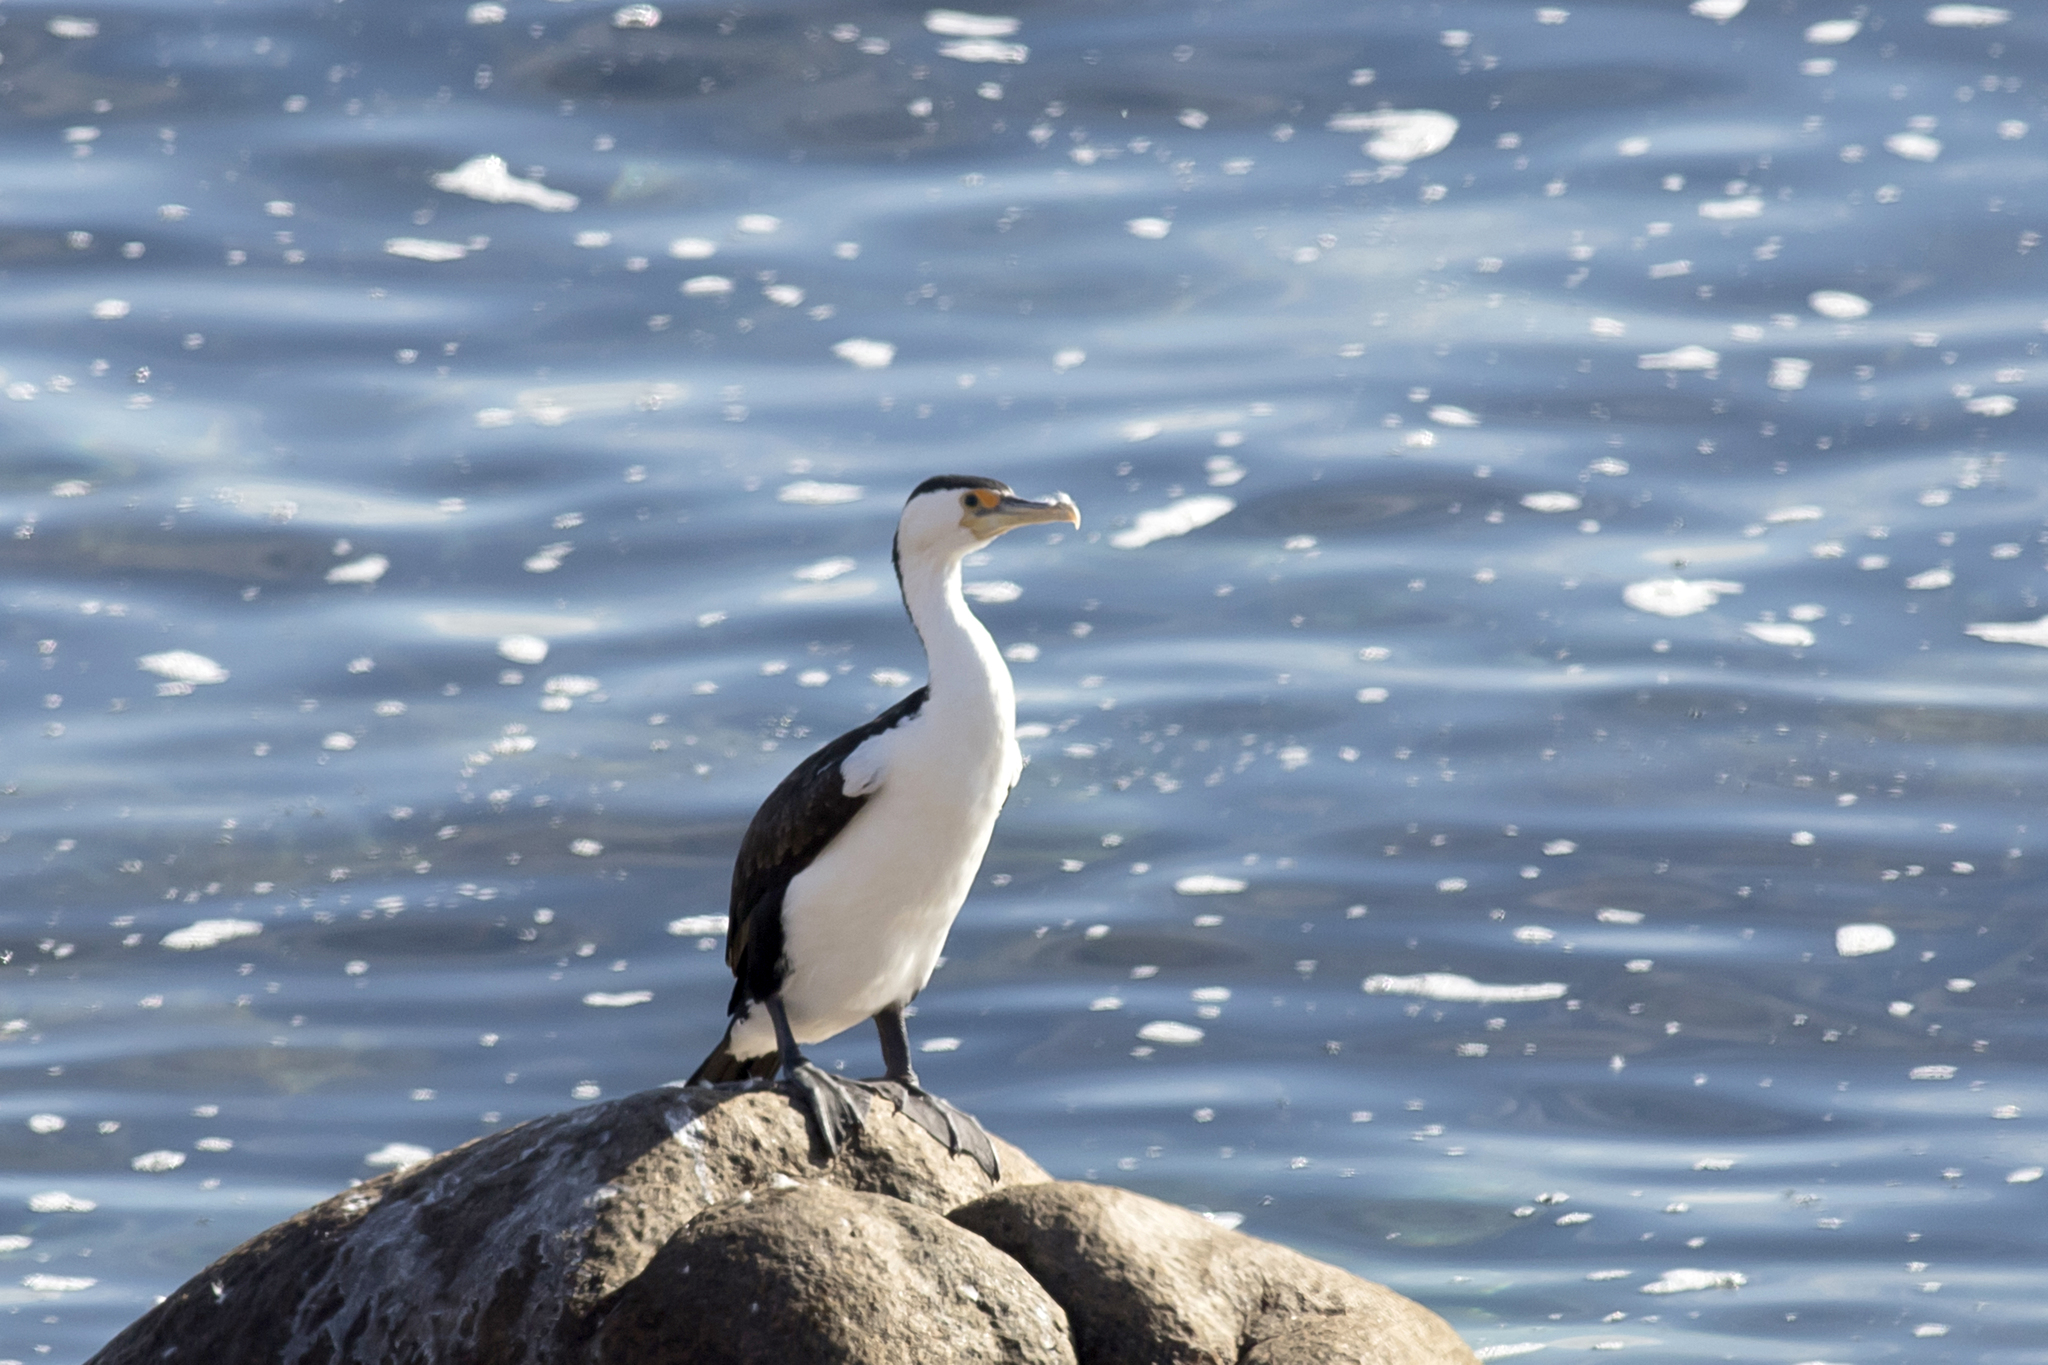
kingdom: Animalia
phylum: Chordata
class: Aves
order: Suliformes
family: Phalacrocoracidae
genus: Phalacrocorax
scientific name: Phalacrocorax varius
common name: Pied cormorant
